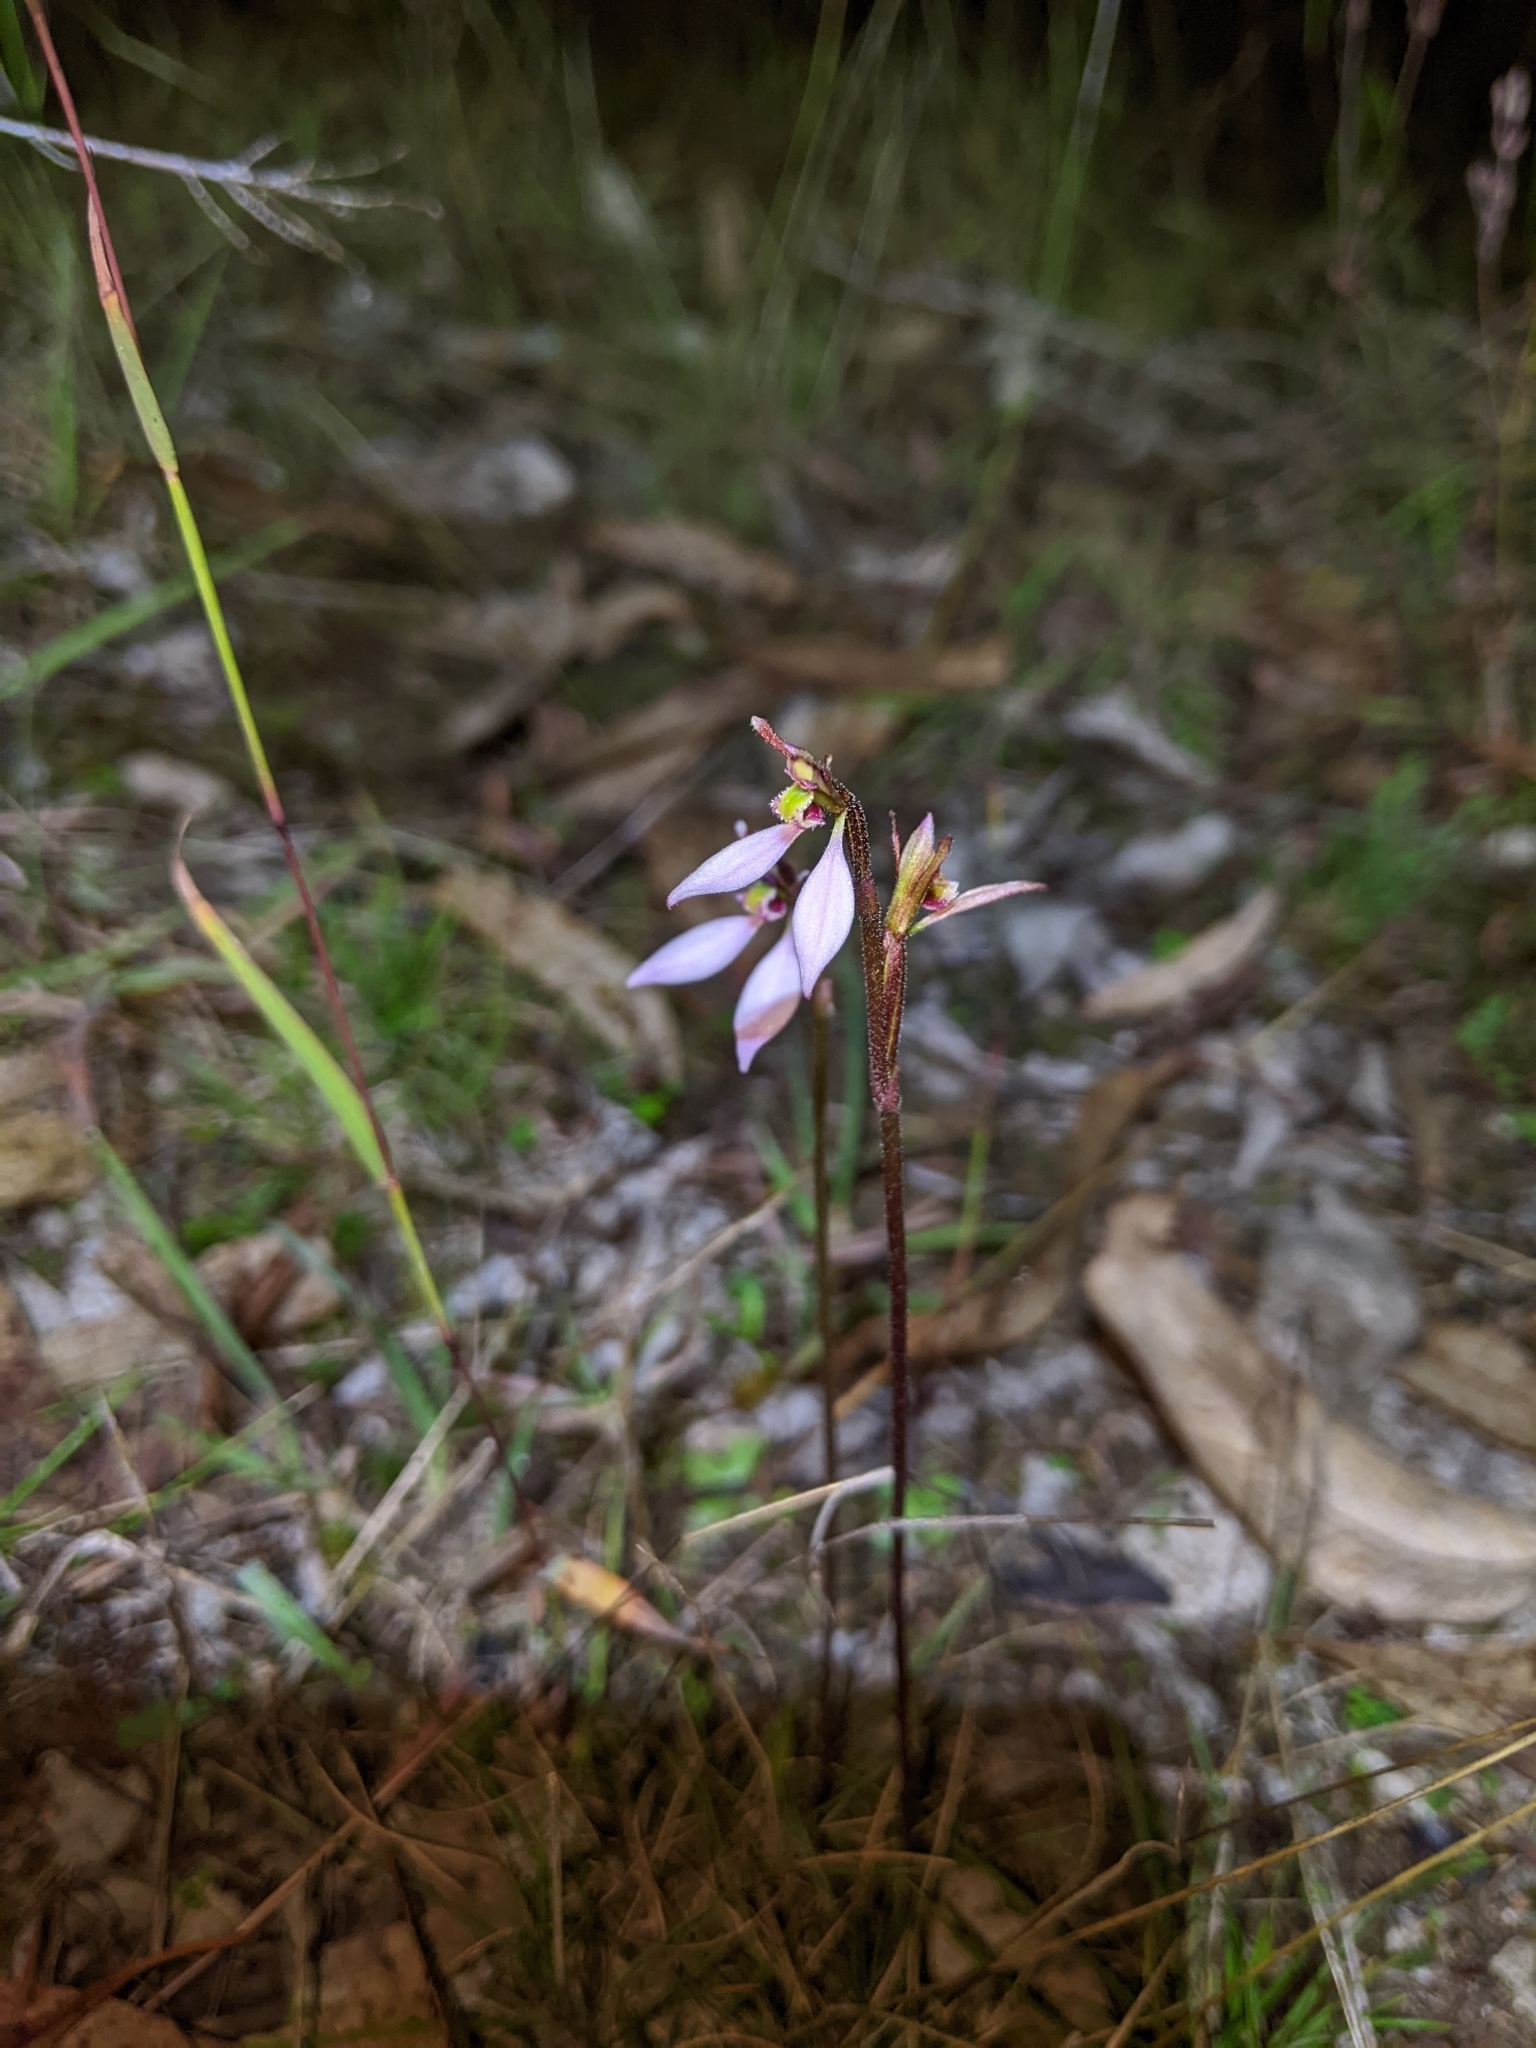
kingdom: Plantae
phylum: Tracheophyta
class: Liliopsida
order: Asparagales
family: Orchidaceae
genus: Eriochilus
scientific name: Eriochilus cucullatus
